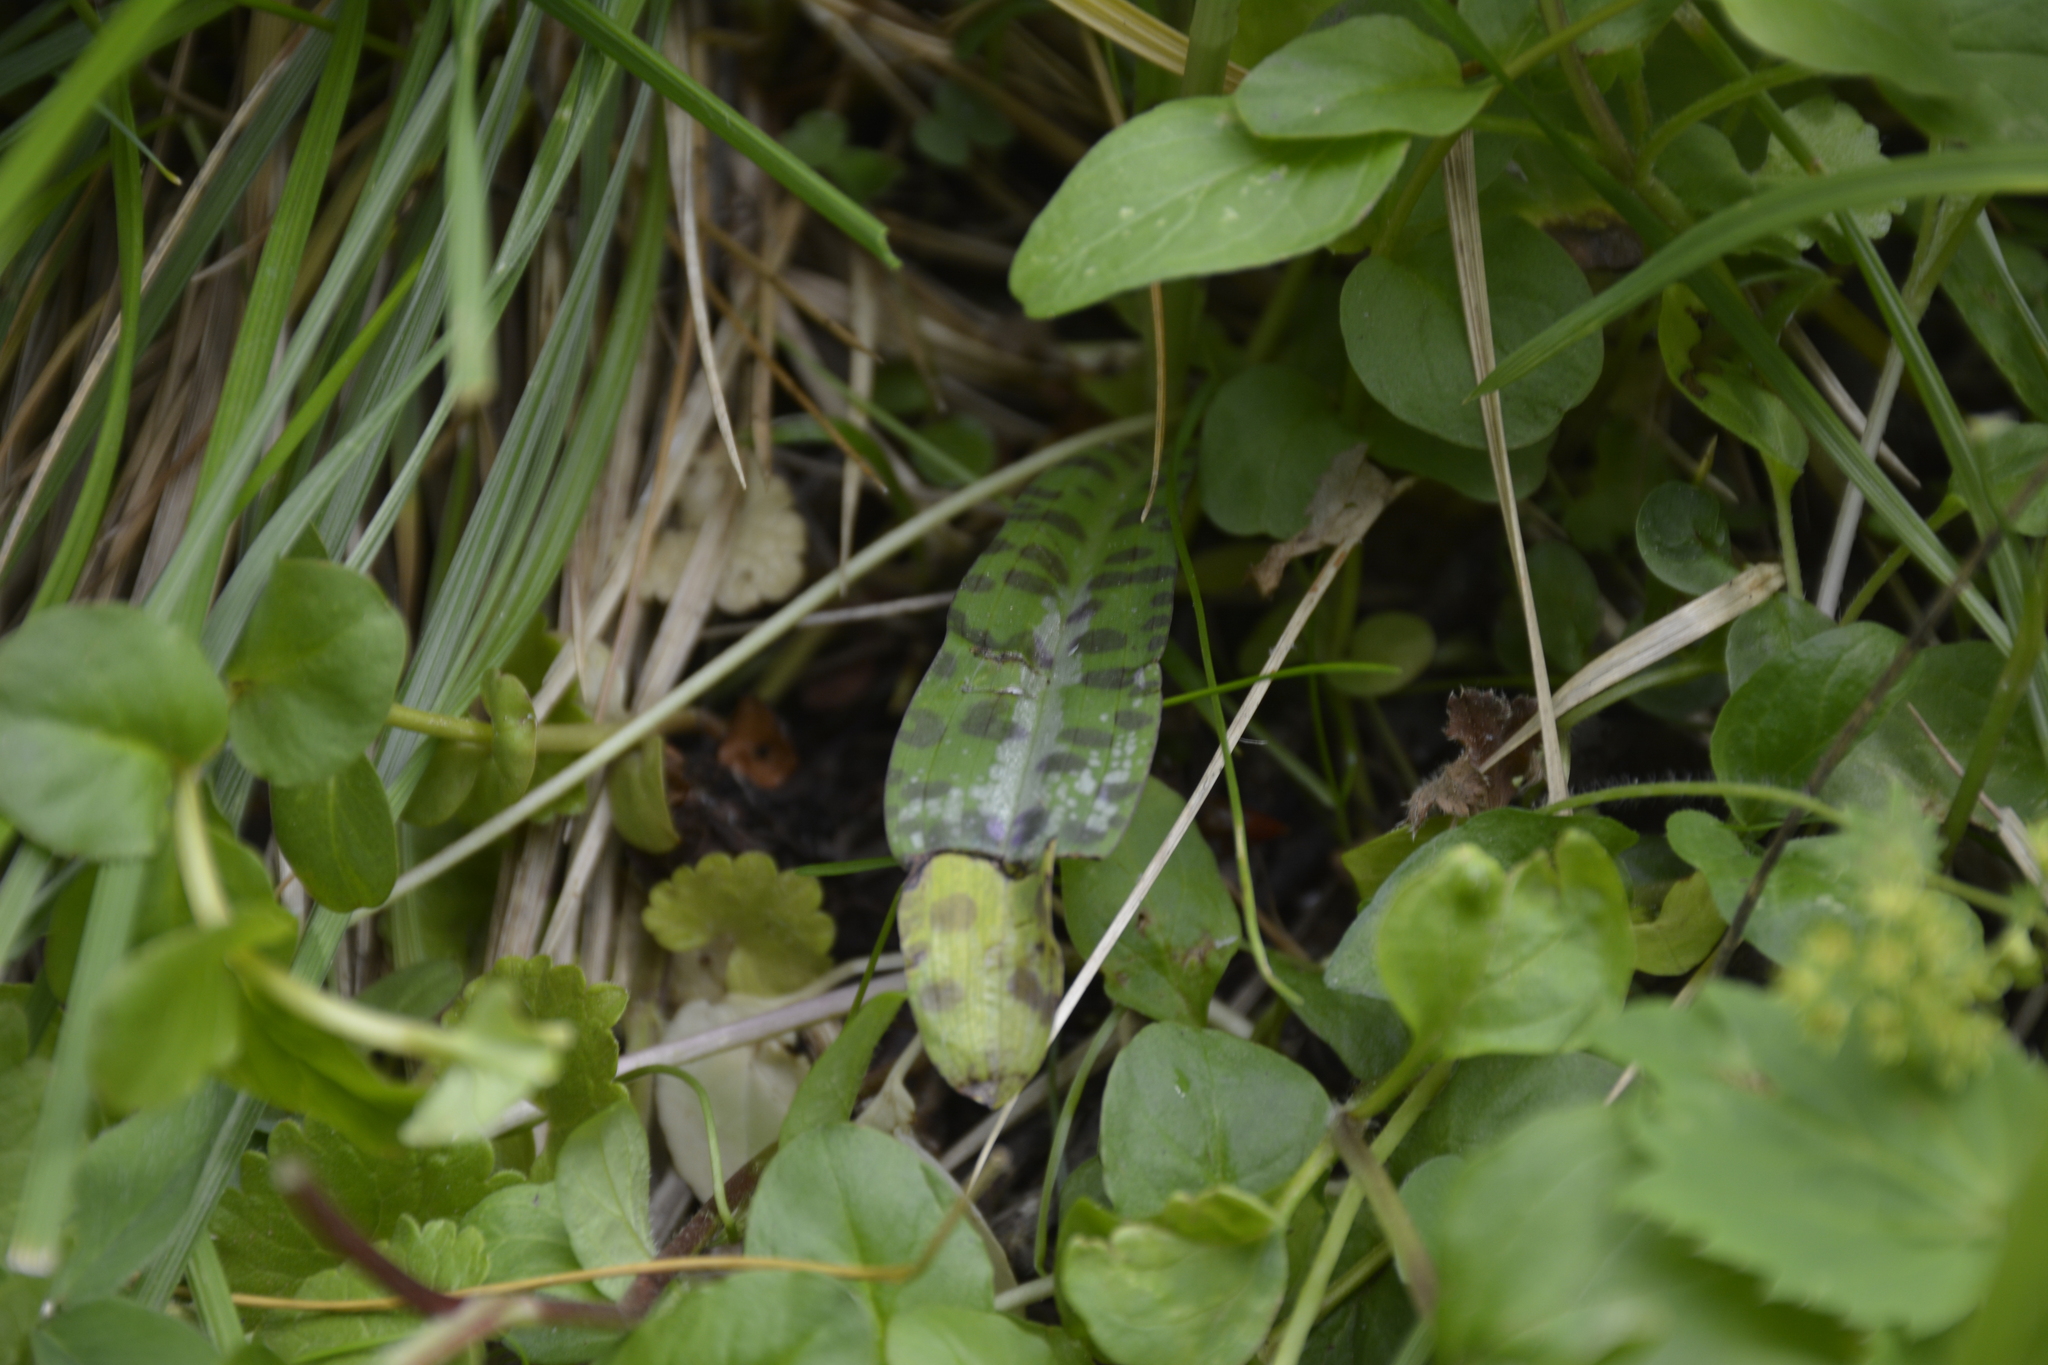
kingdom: Plantae
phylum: Tracheophyta
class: Liliopsida
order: Asparagales
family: Orchidaceae
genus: Dactylorhiza
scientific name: Dactylorhiza maculata
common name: Heath spotted-orchid
